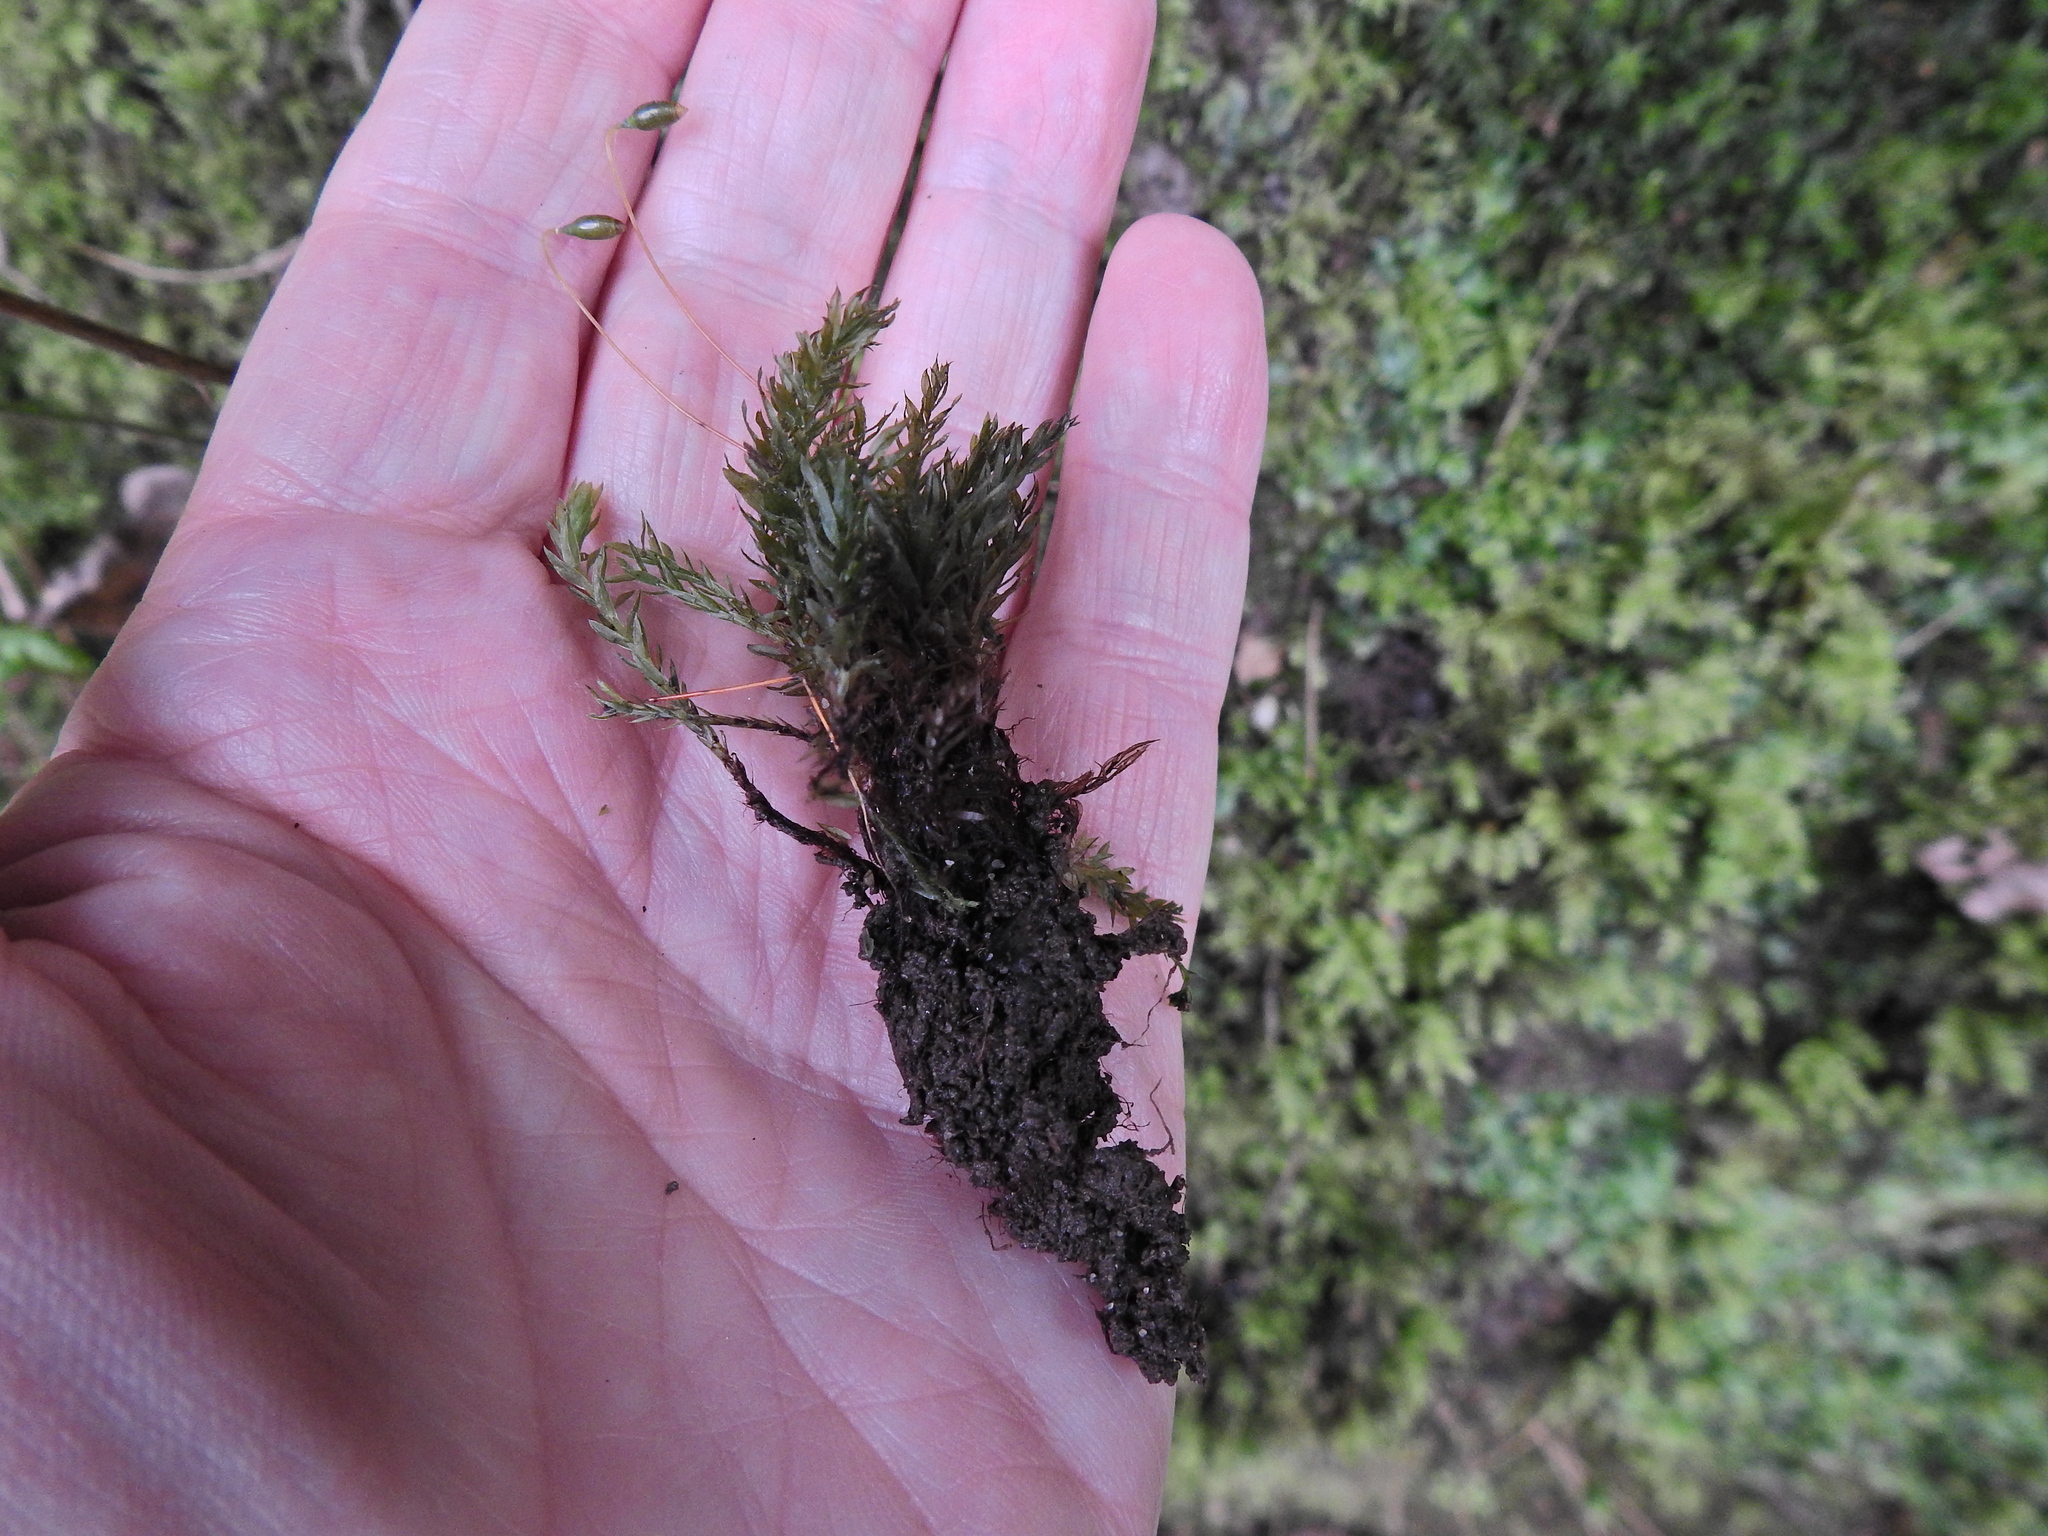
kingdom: Plantae
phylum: Bryophyta
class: Bryopsida
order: Bryales
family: Mniaceae
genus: Mnium
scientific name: Mnium hornum
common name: Swan's-neck leafy moss
